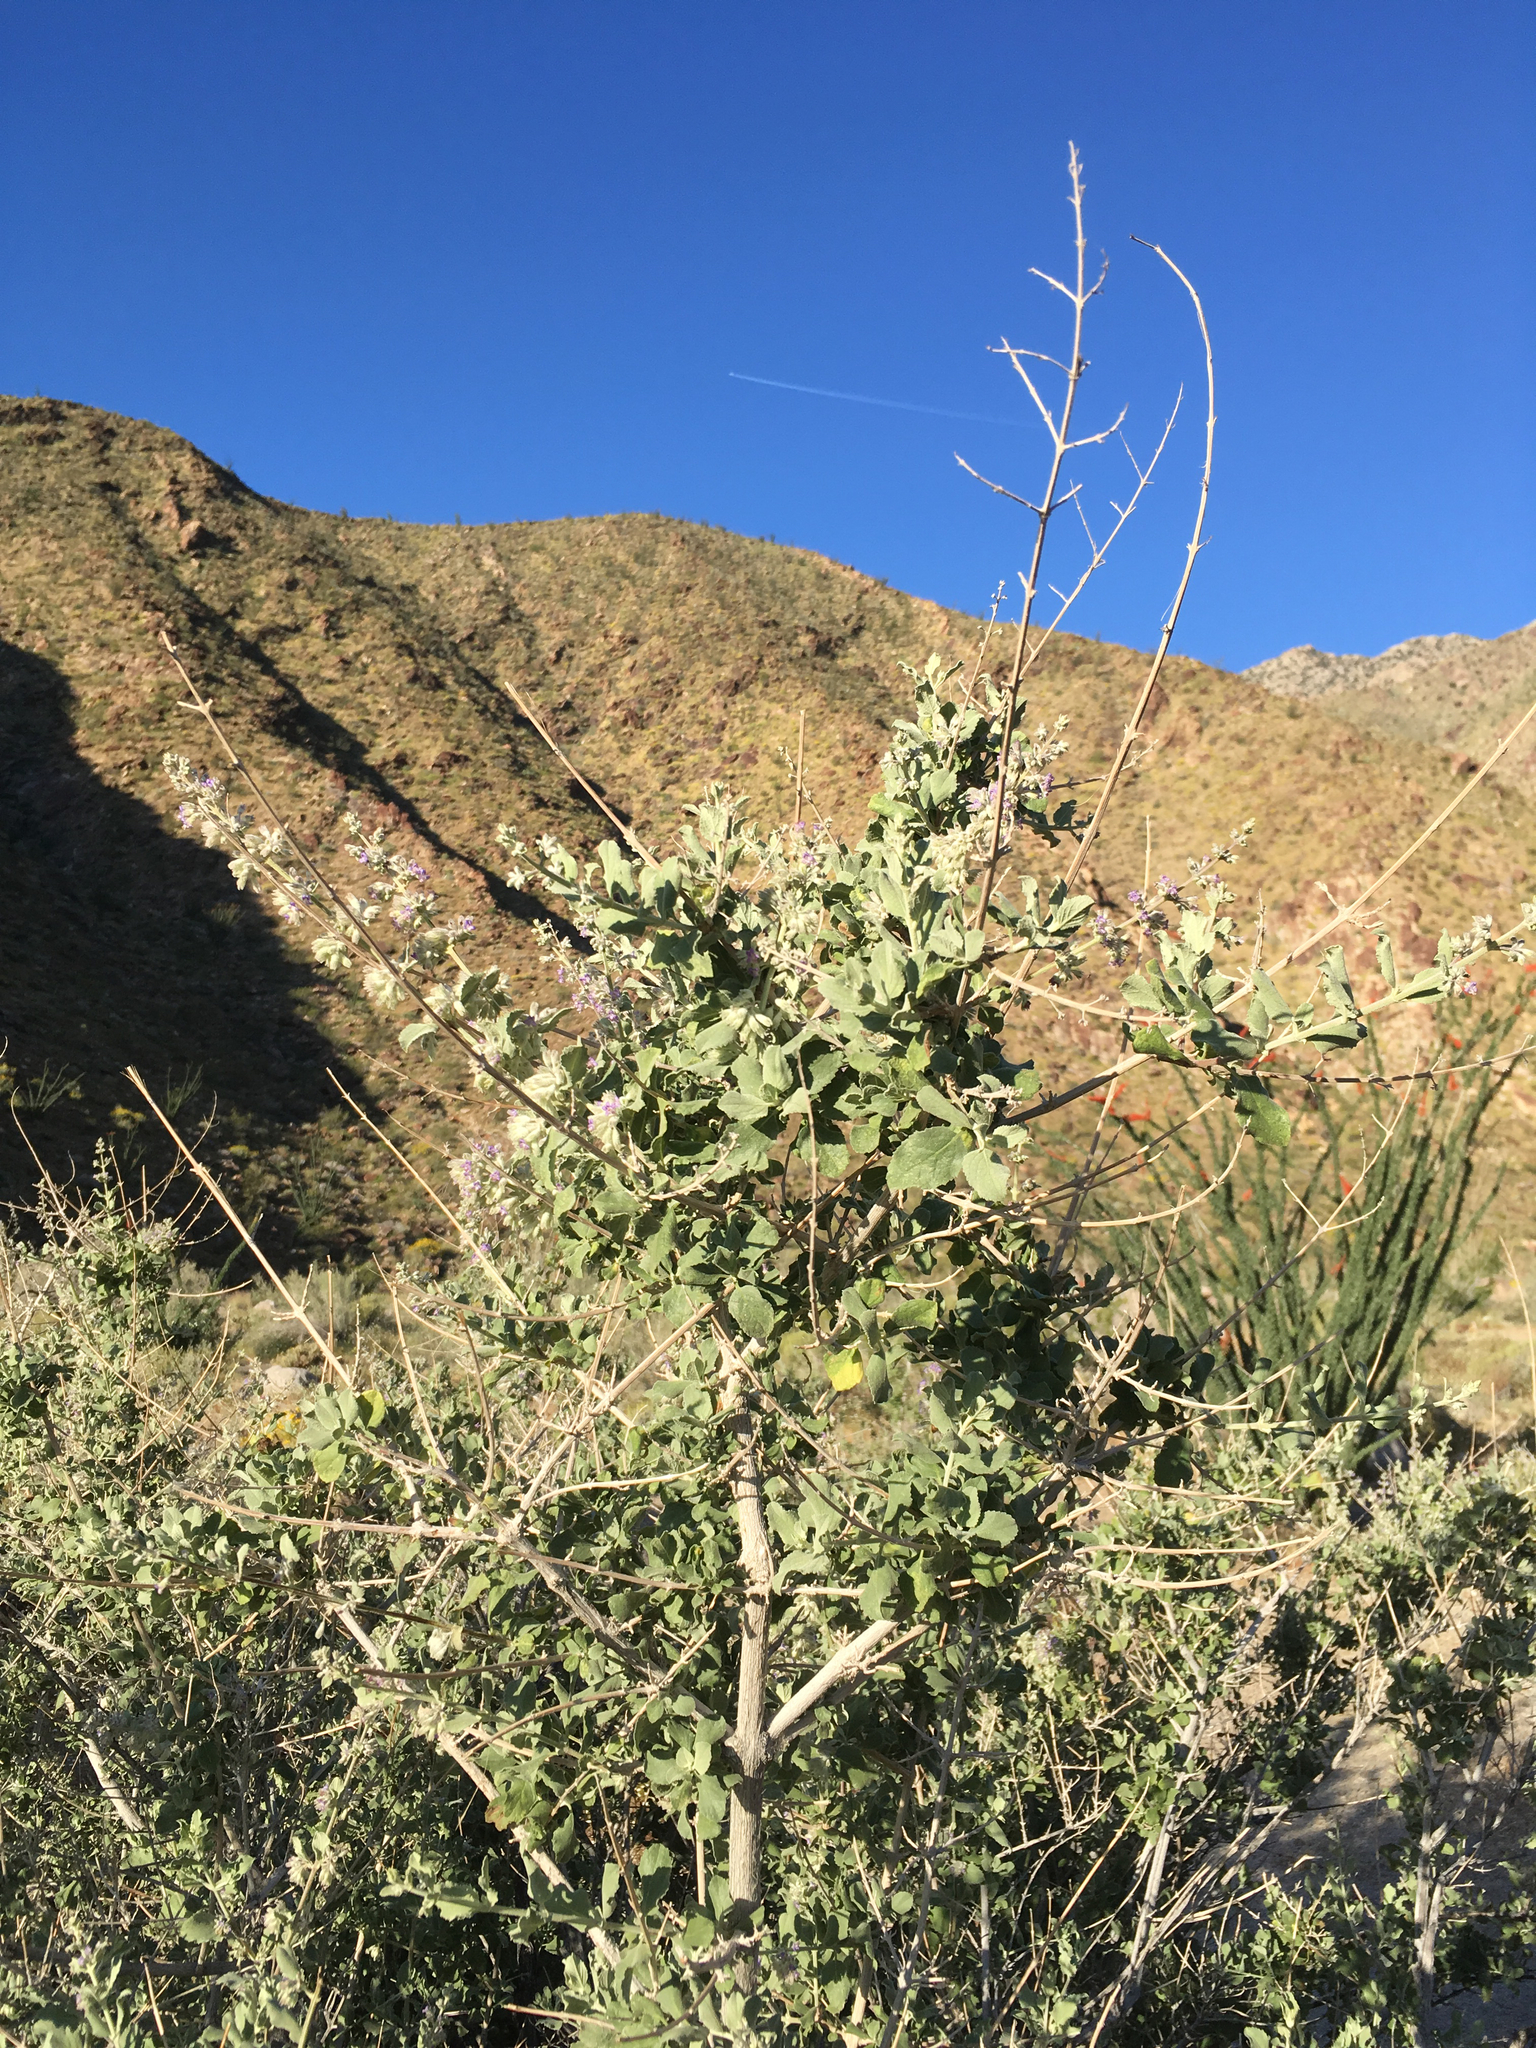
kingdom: Plantae
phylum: Tracheophyta
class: Magnoliopsida
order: Lamiales
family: Lamiaceae
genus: Condea
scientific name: Condea emoryi
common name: Chia
